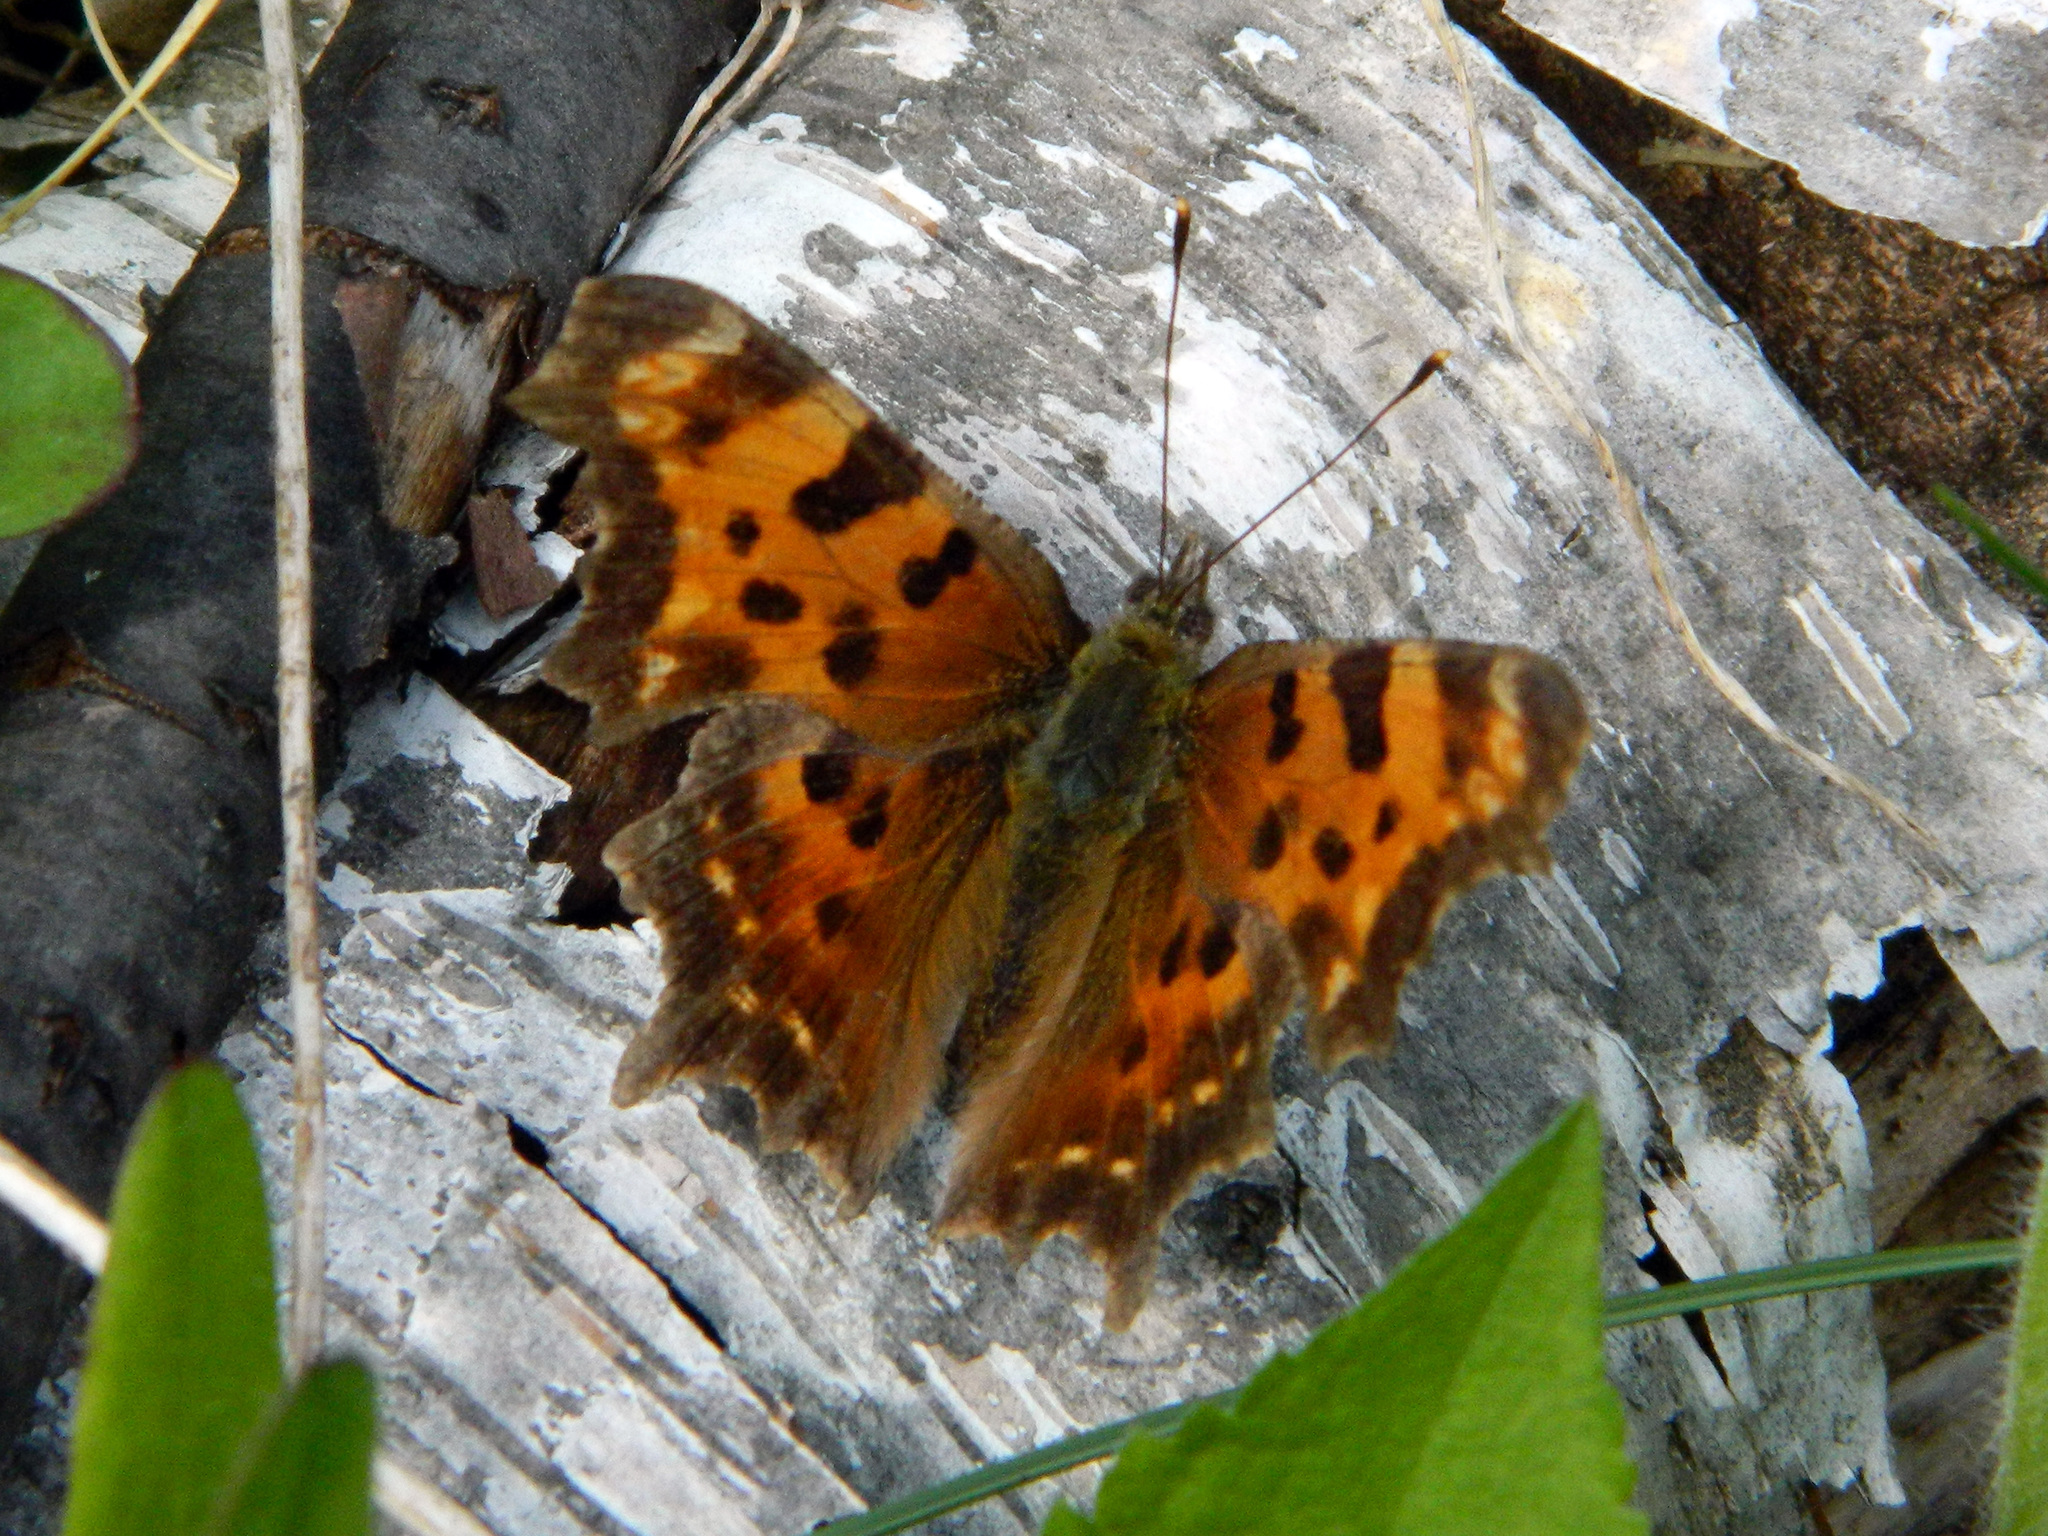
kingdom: Animalia
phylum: Arthropoda
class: Insecta
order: Lepidoptera
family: Nymphalidae
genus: Polygonia
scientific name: Polygonia faunus
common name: Green comma
